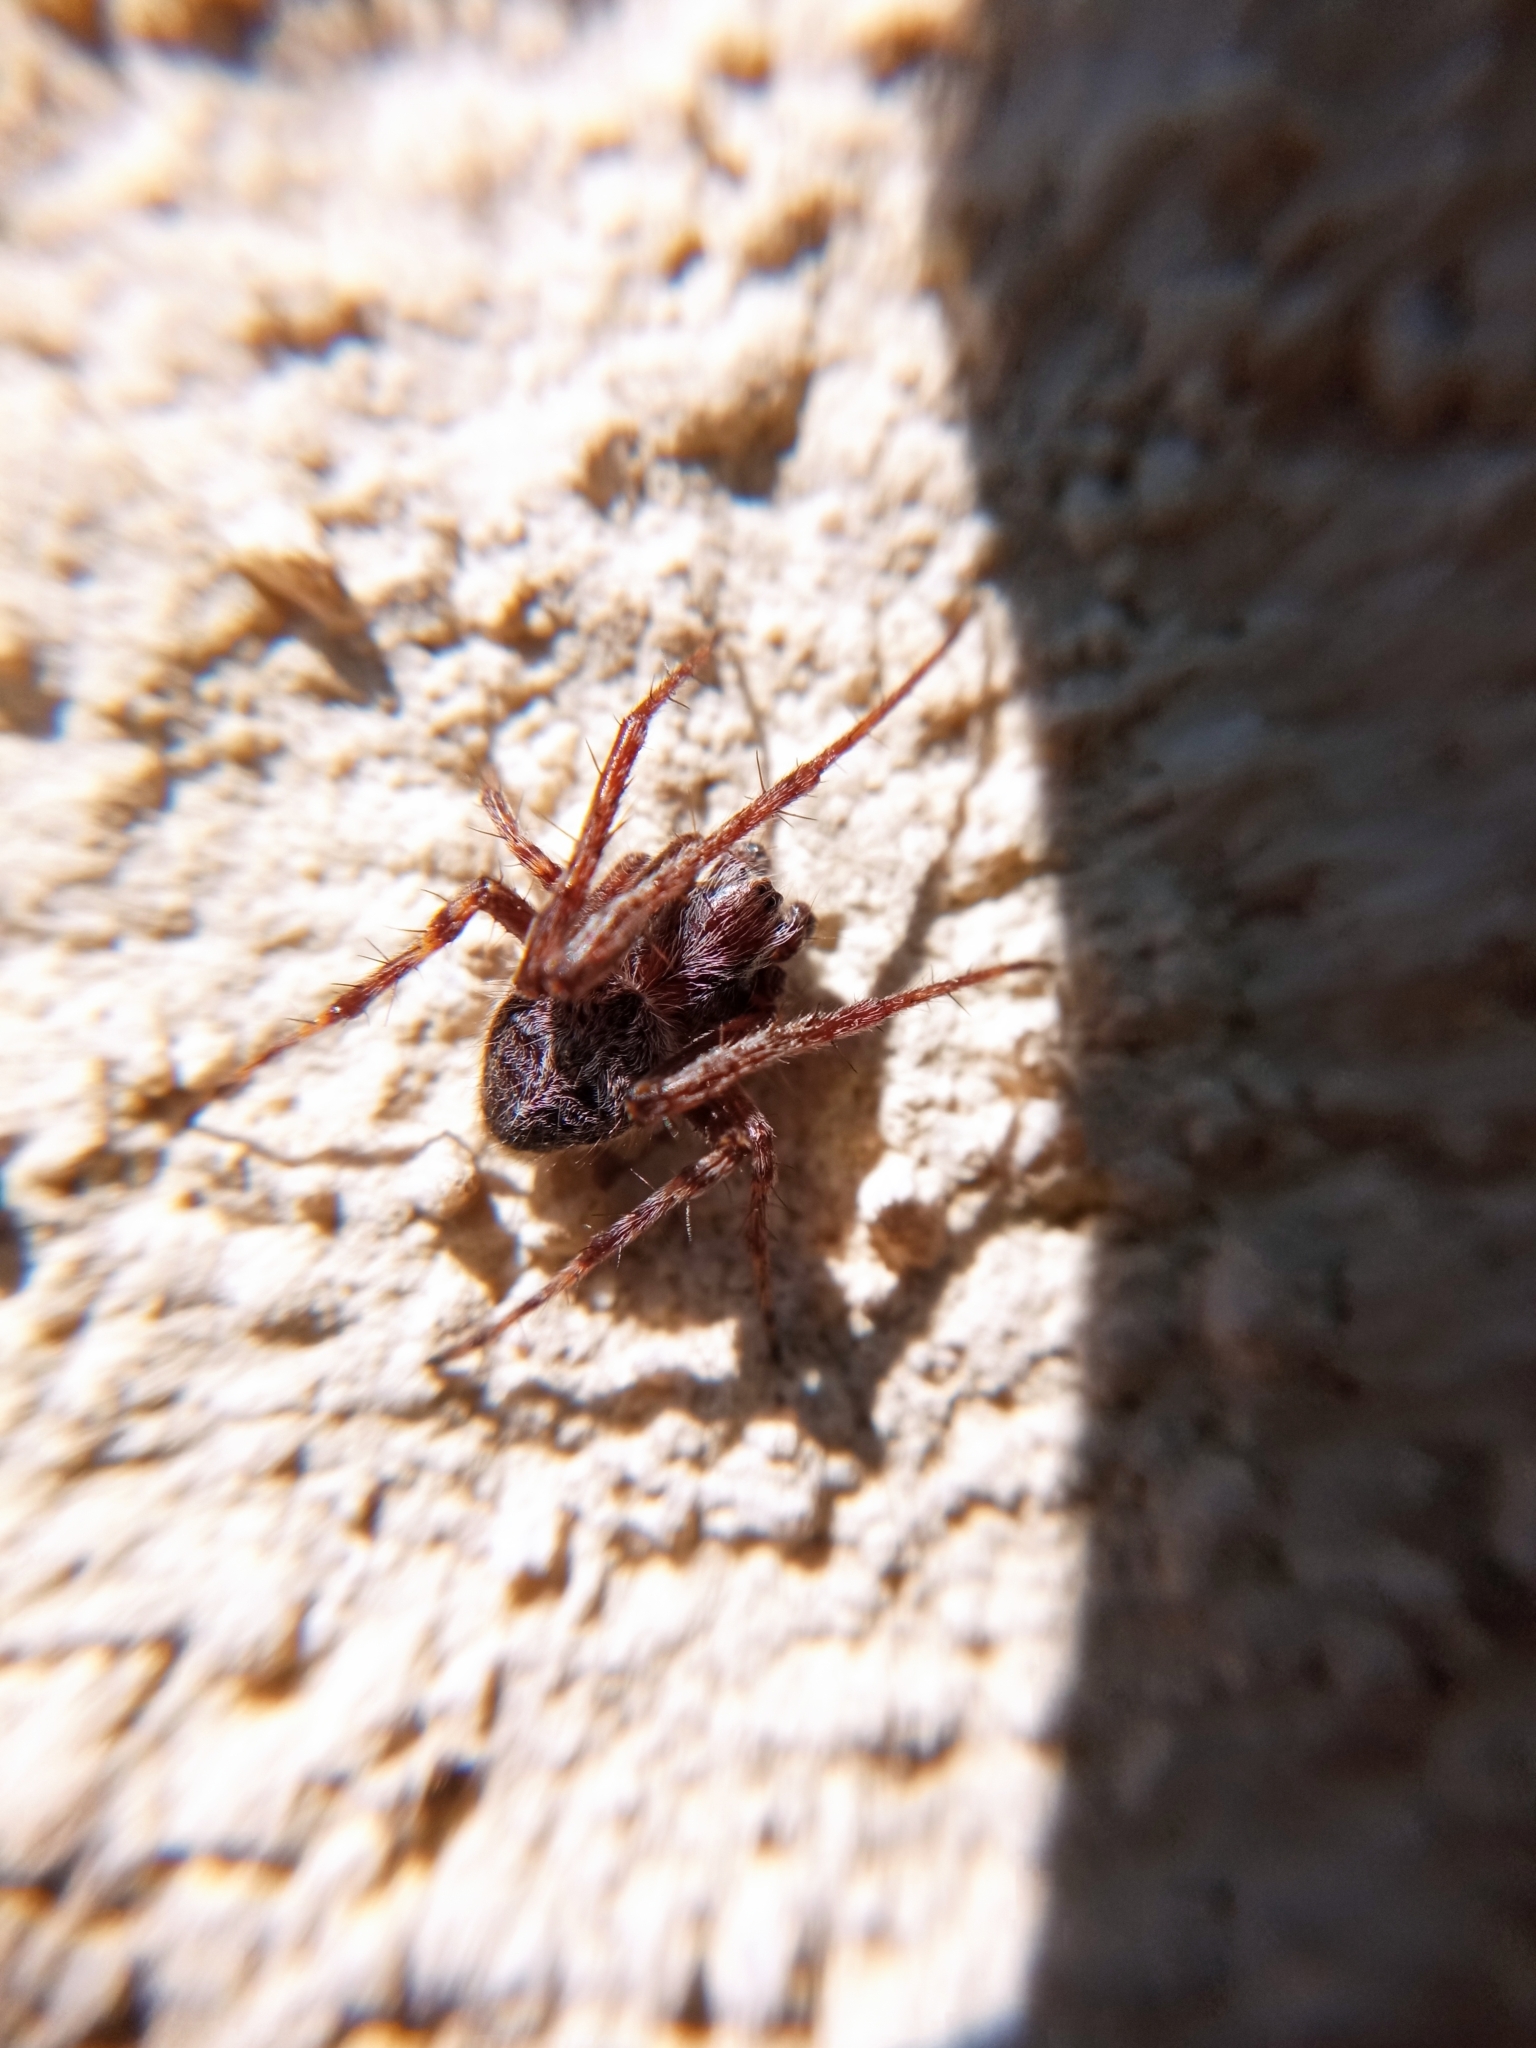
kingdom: Animalia
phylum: Arthropoda
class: Arachnida
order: Araneae
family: Araneidae
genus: Agalenatea
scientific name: Agalenatea redii
